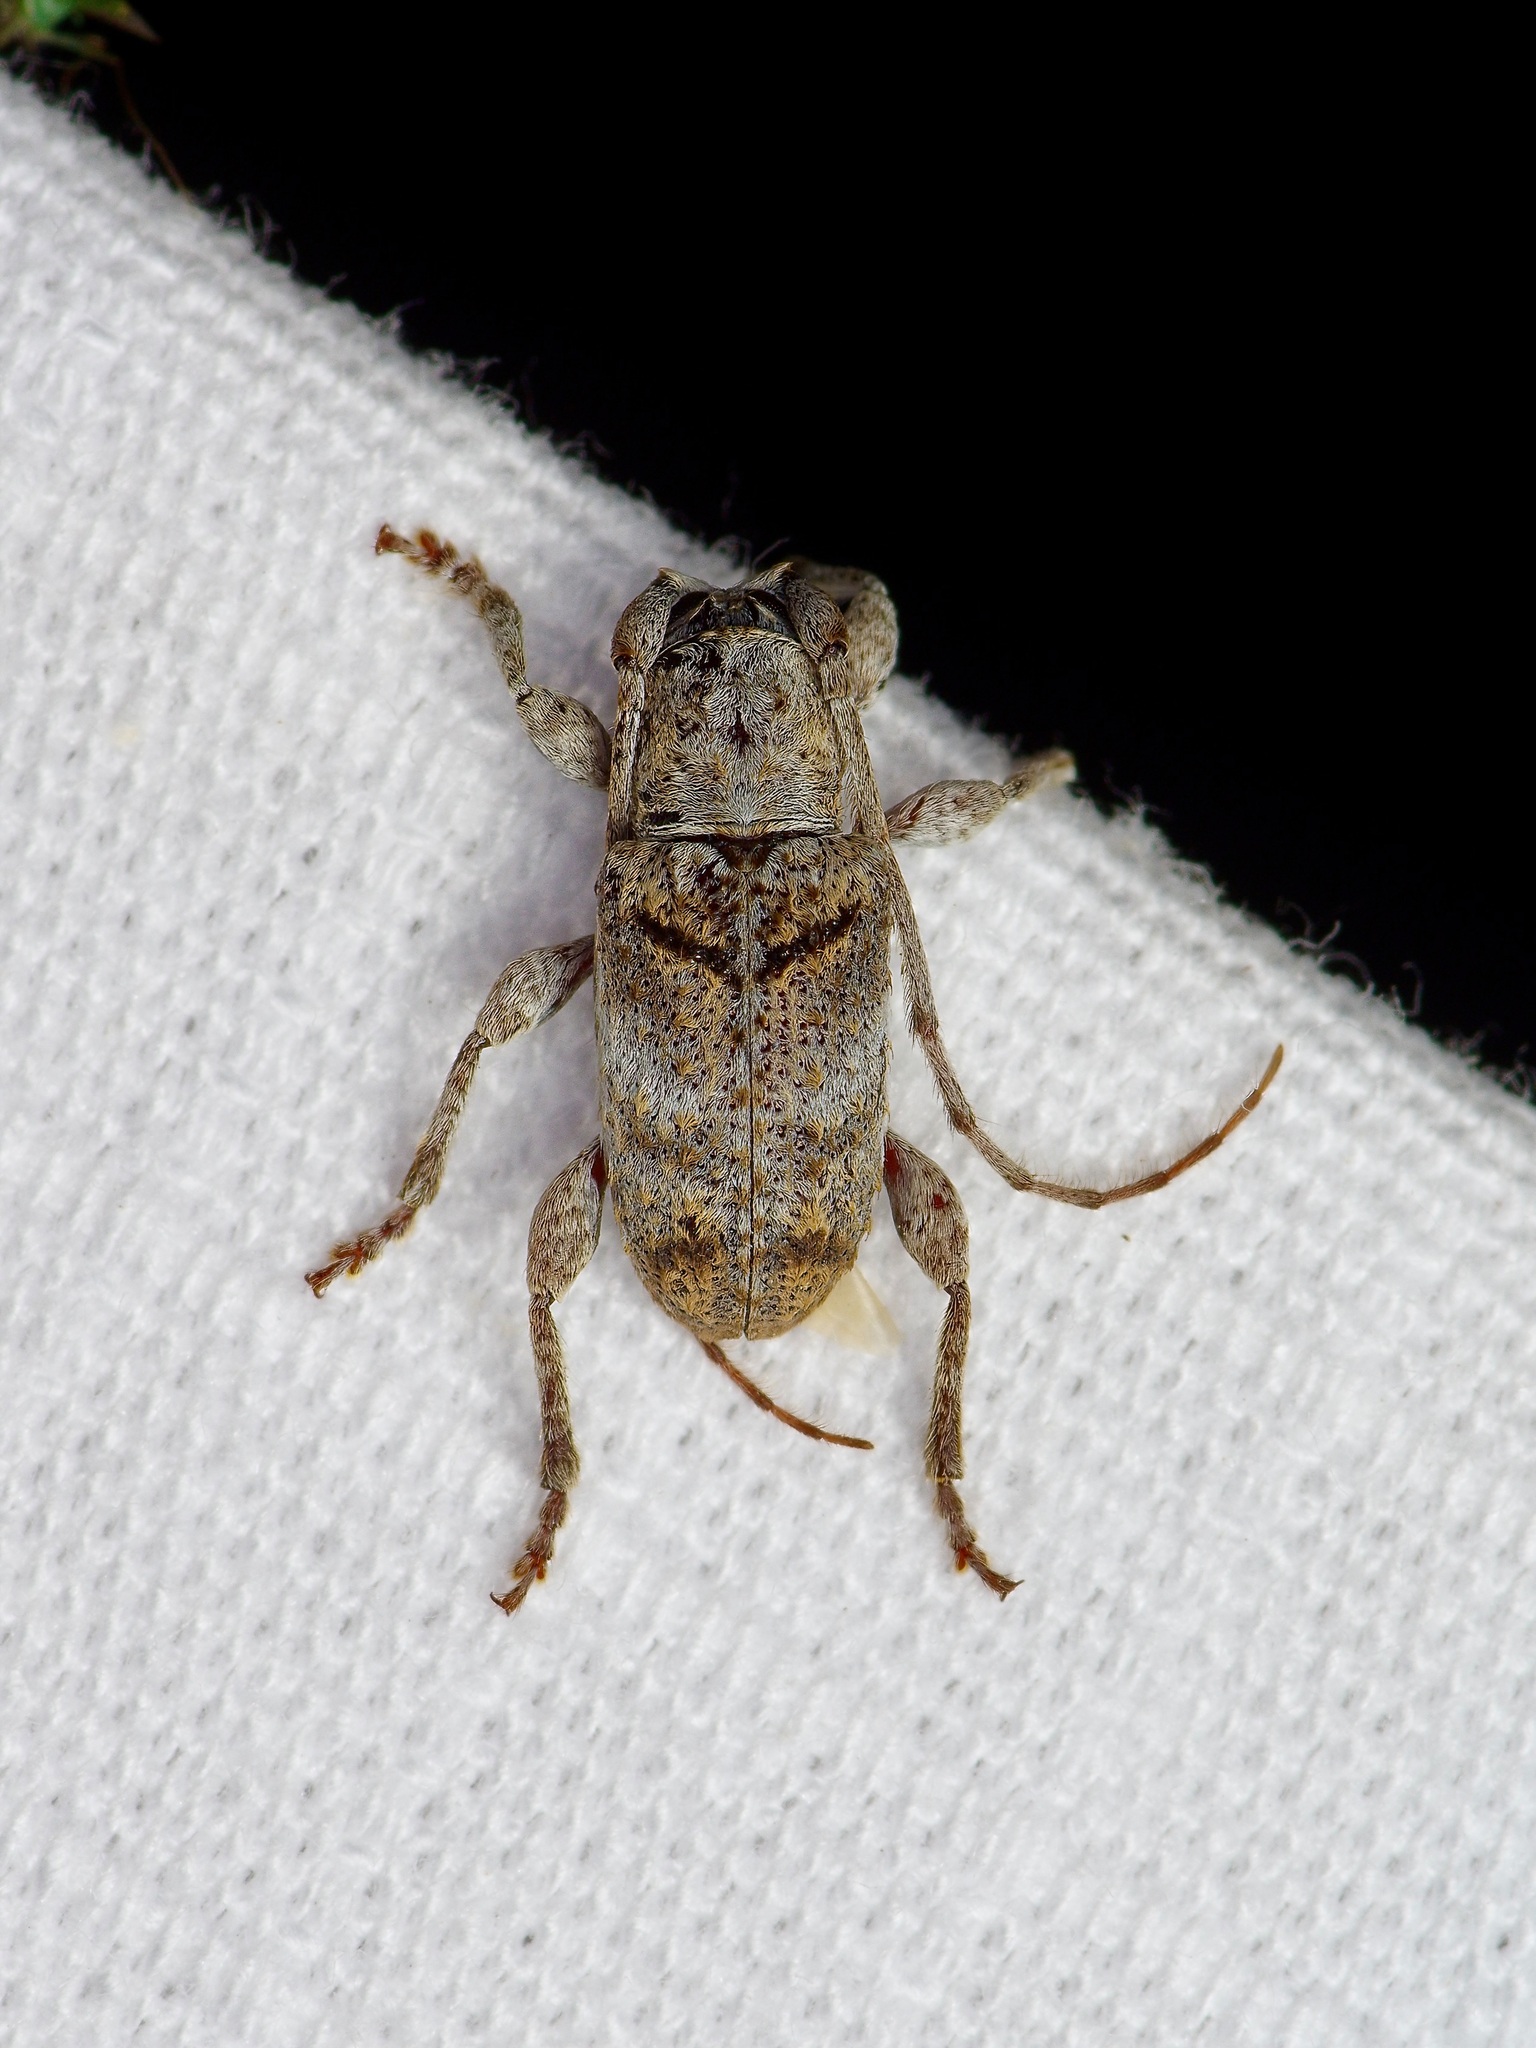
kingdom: Animalia
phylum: Arthropoda
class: Insecta
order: Coleoptera
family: Cerambycidae
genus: Ecyrus
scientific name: Ecyrus dasycerus
